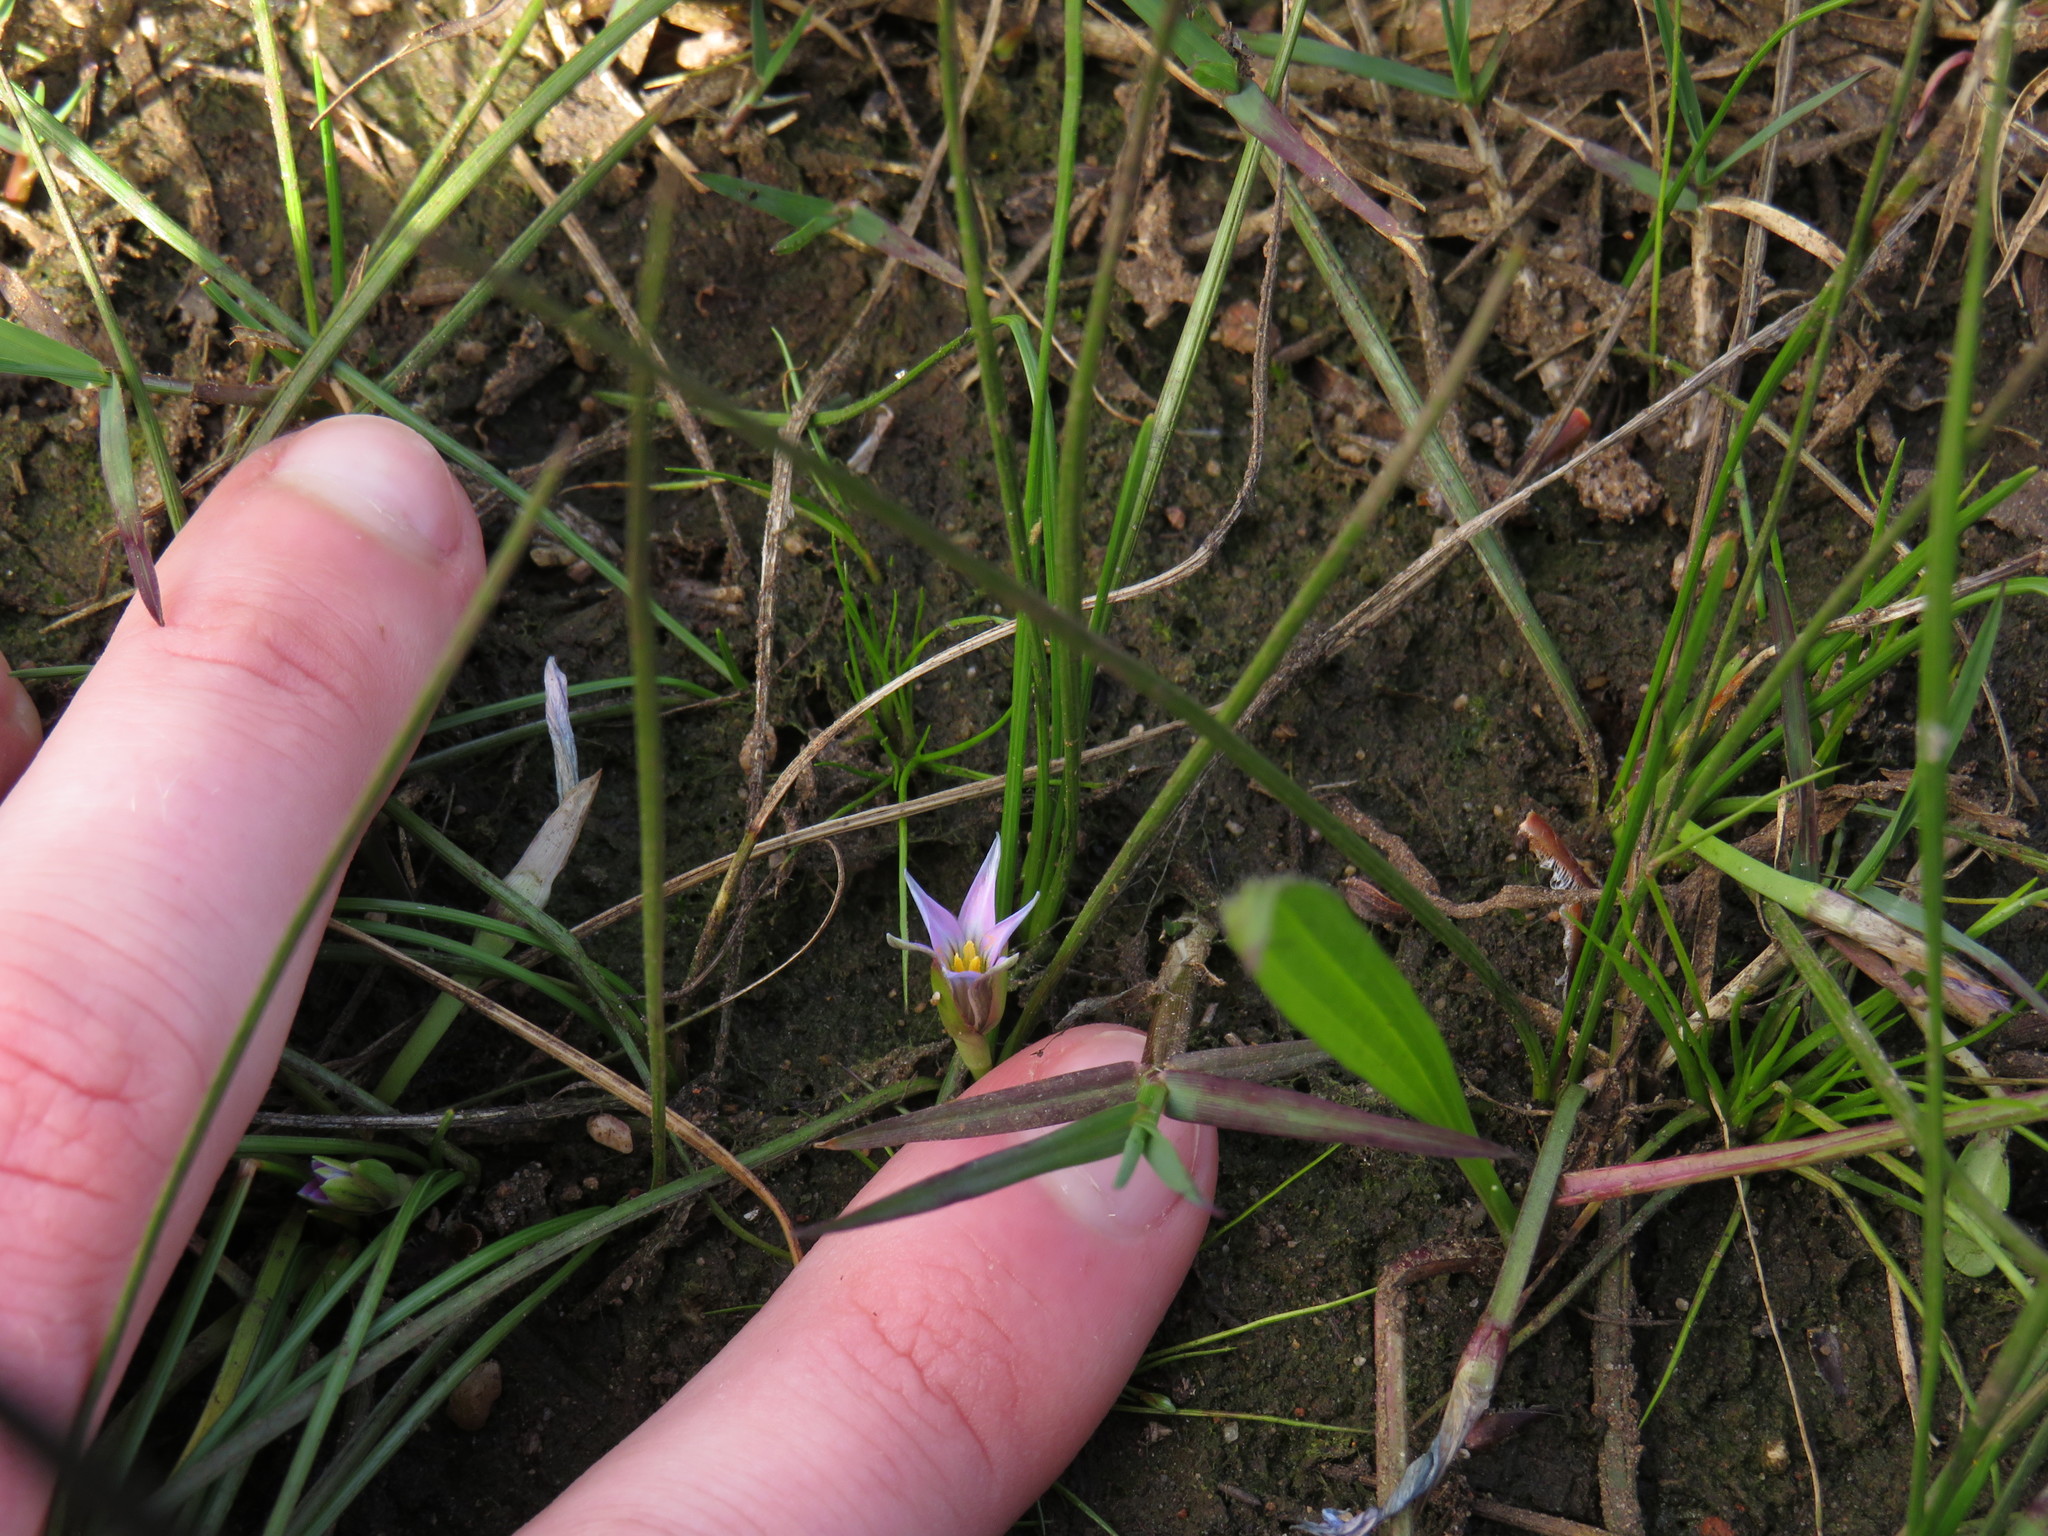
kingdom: Plantae
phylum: Tracheophyta
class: Liliopsida
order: Asparagales
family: Iridaceae
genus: Romulea
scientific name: Romulea rosea
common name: Oniongrass
